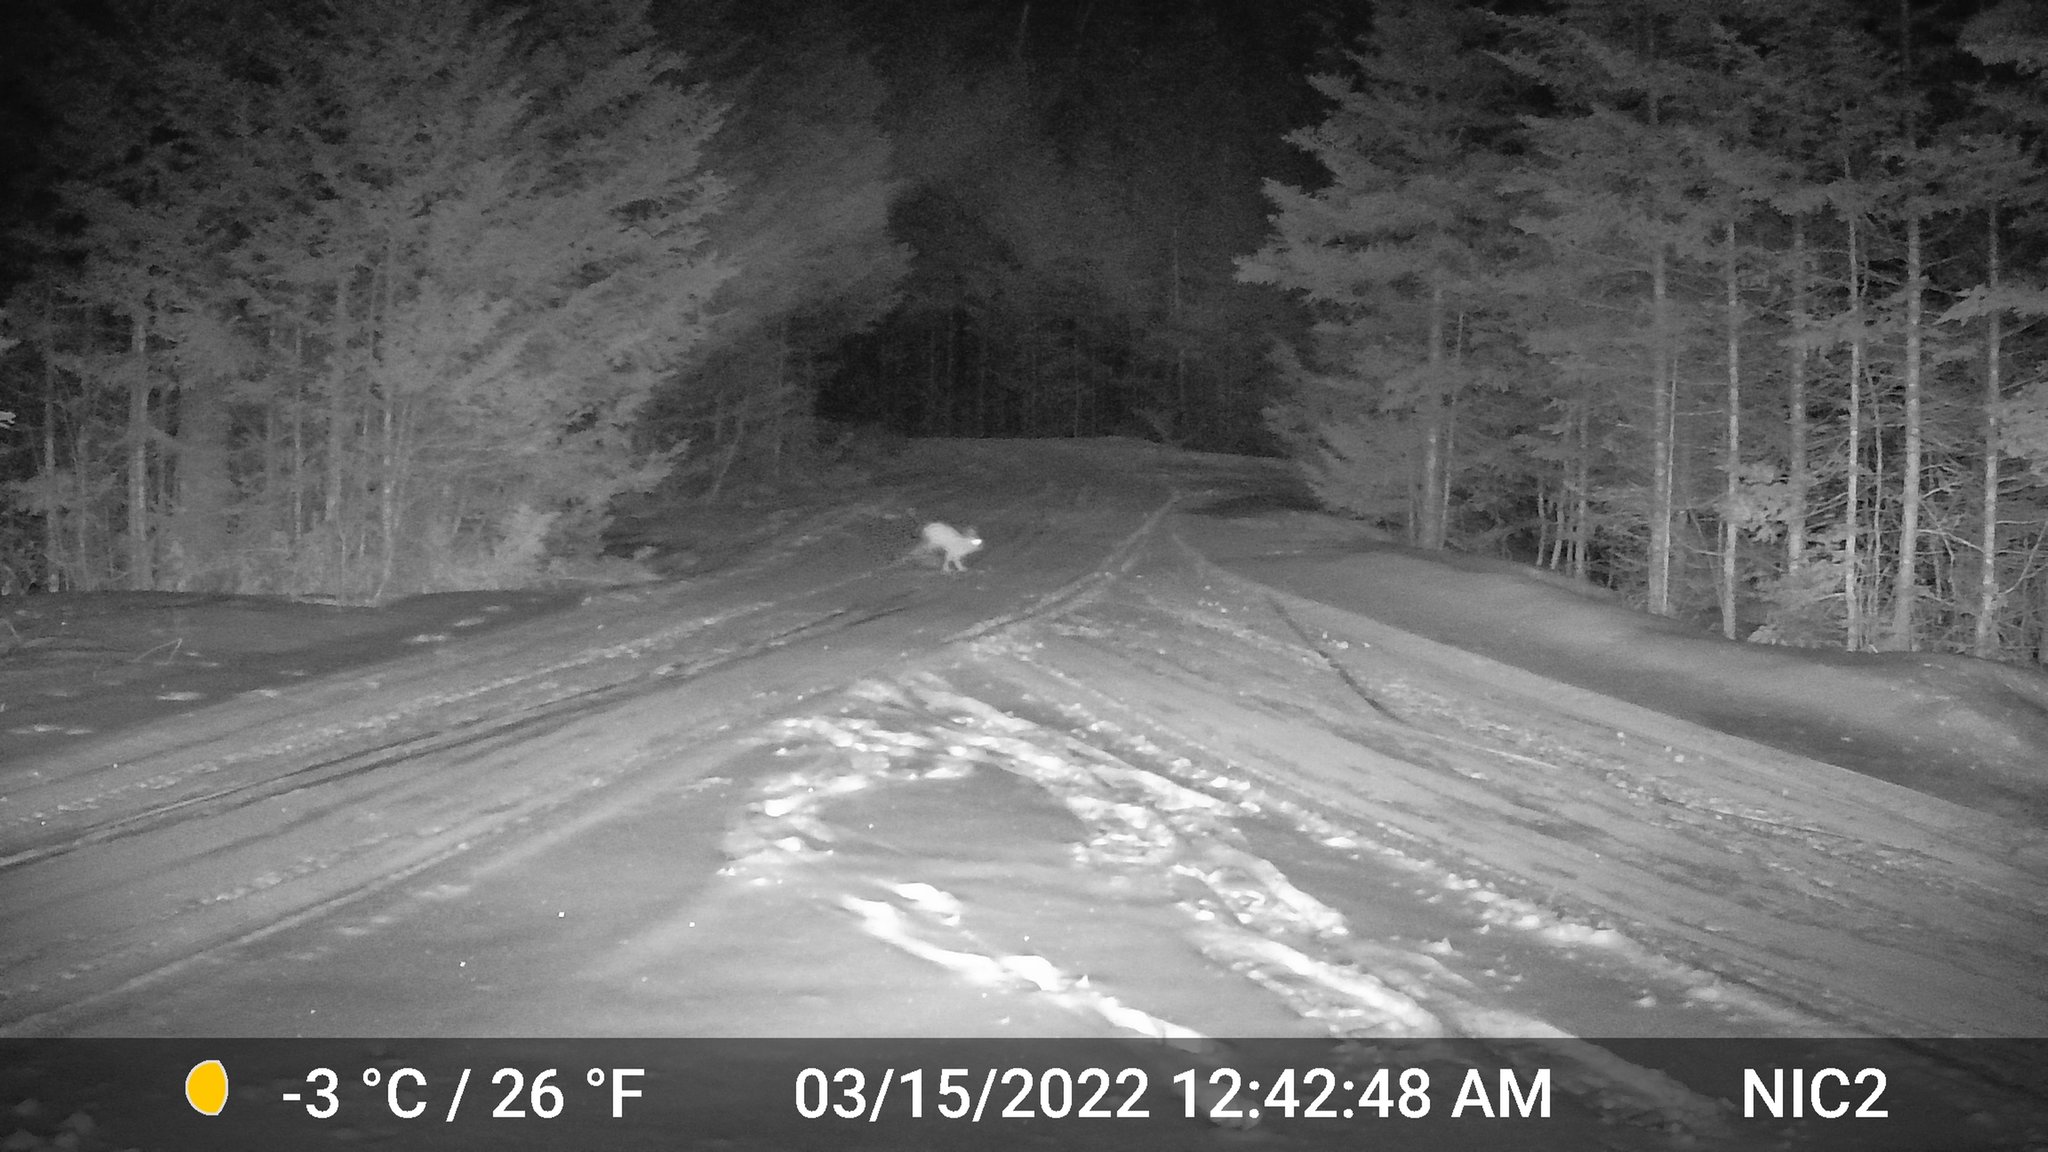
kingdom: Animalia
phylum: Chordata
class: Mammalia
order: Lagomorpha
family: Leporidae
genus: Lepus
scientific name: Lepus americanus
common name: Snowshoe hare
